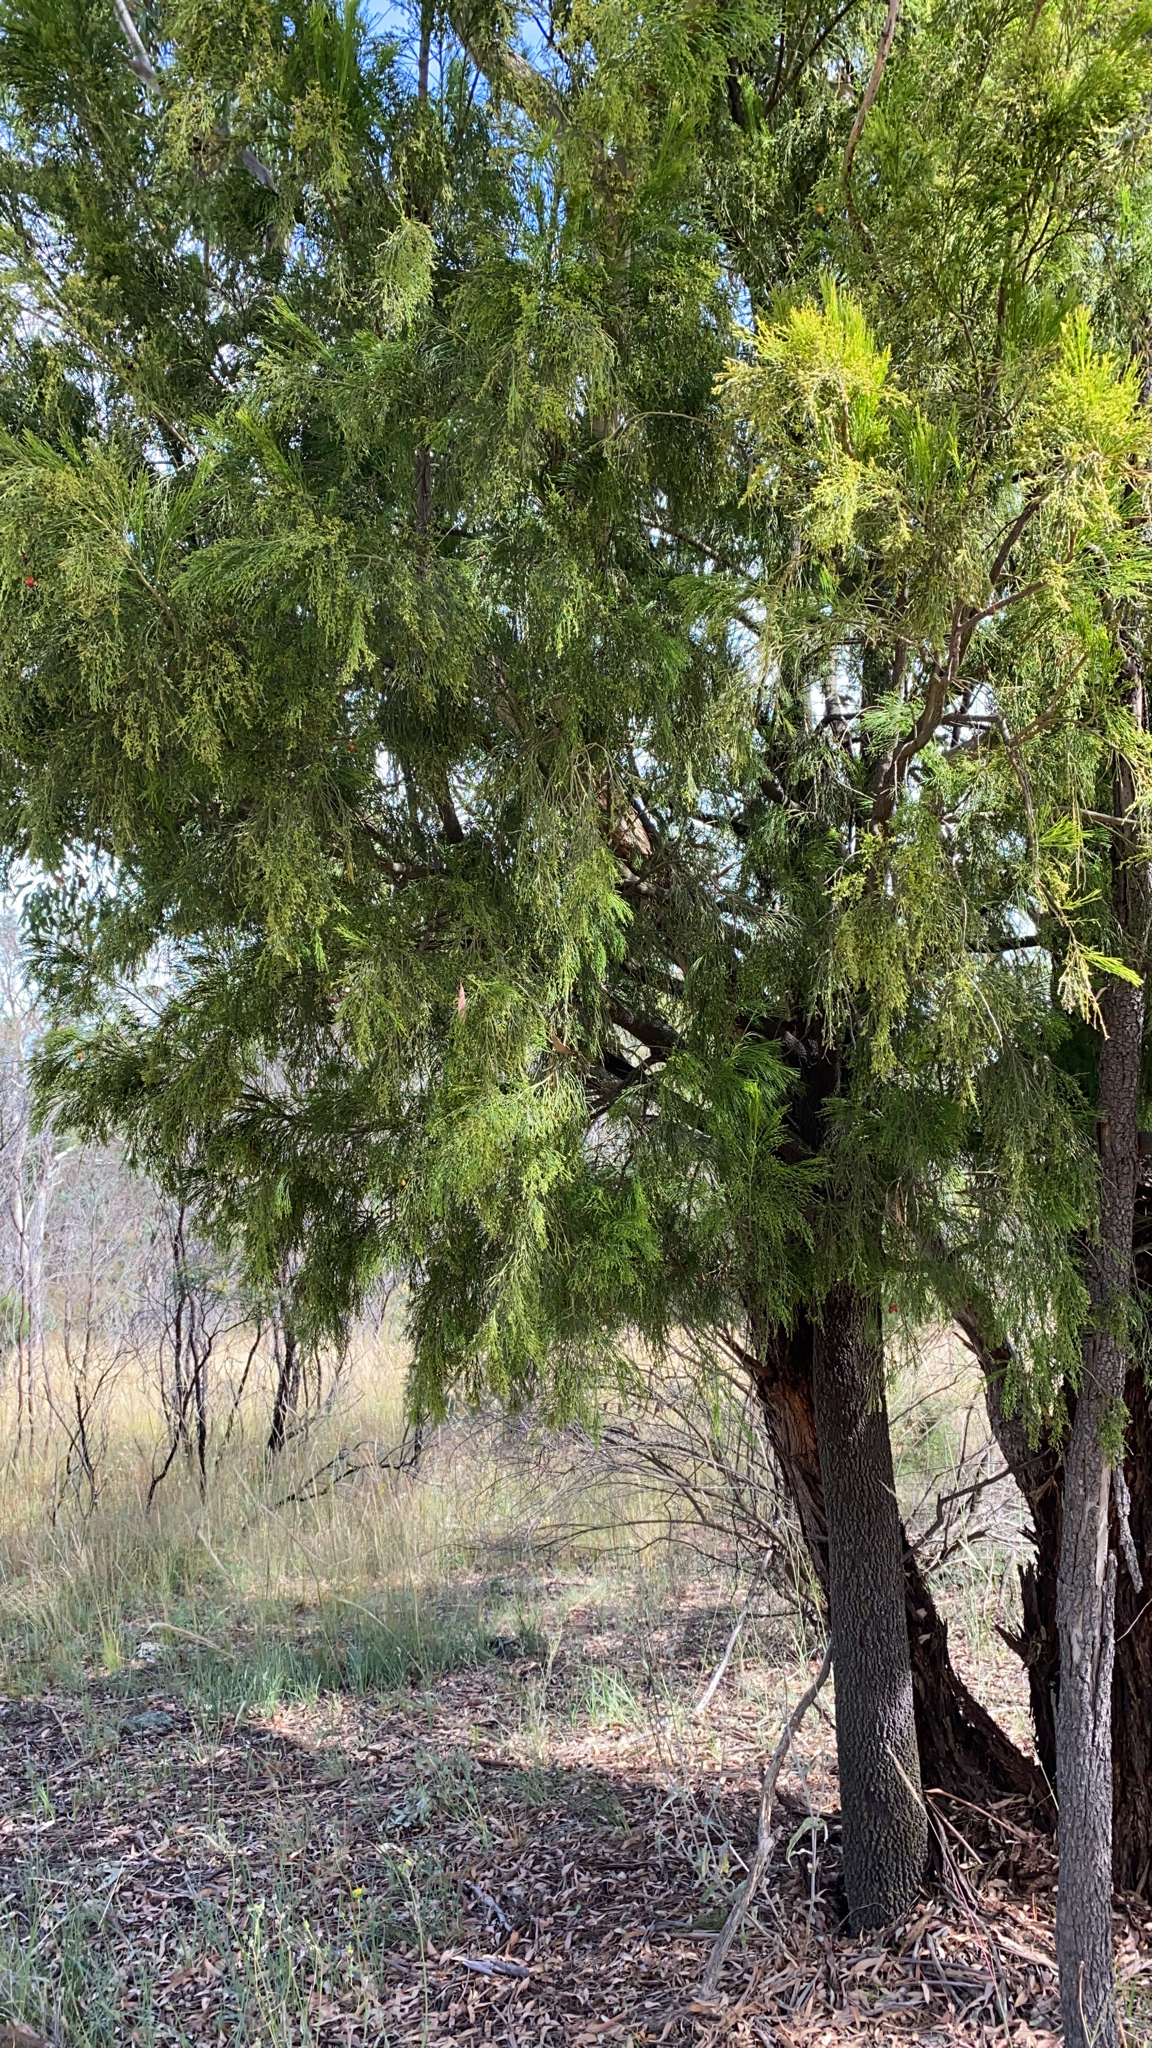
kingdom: Plantae
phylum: Tracheophyta
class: Magnoliopsida
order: Santalales
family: Santalaceae
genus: Exocarpos
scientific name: Exocarpos cupressiformis
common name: Cherry ballart
